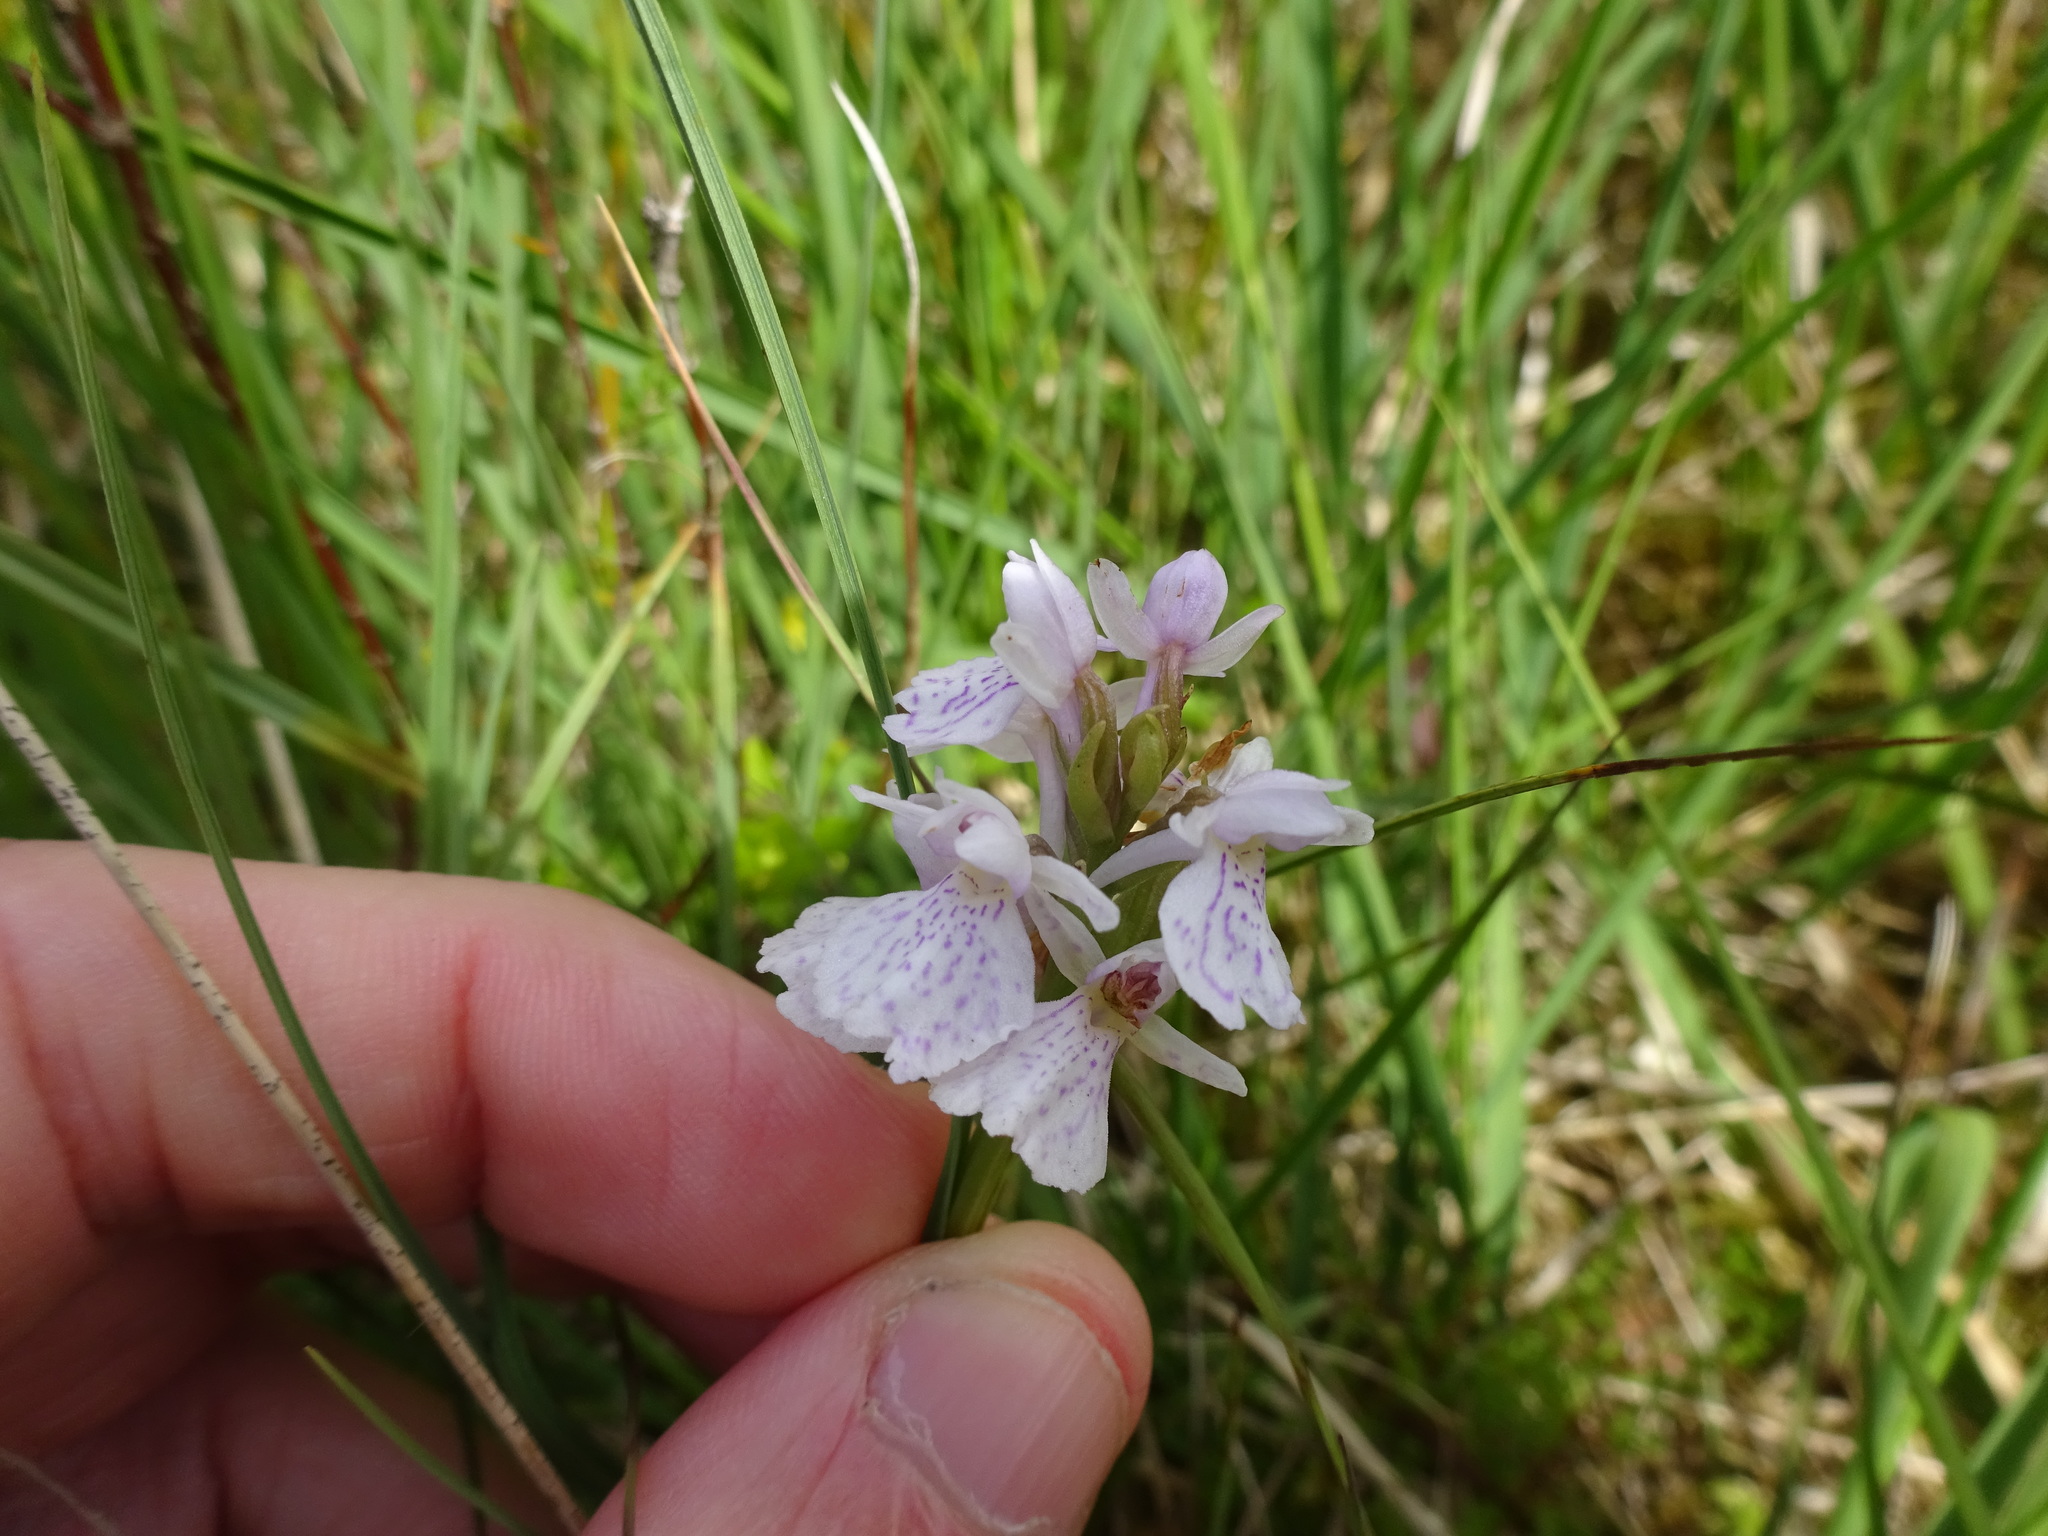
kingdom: Plantae
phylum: Tracheophyta
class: Liliopsida
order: Asparagales
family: Orchidaceae
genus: Dactylorhiza
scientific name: Dactylorhiza maculata
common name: Heath spotted-orchid
